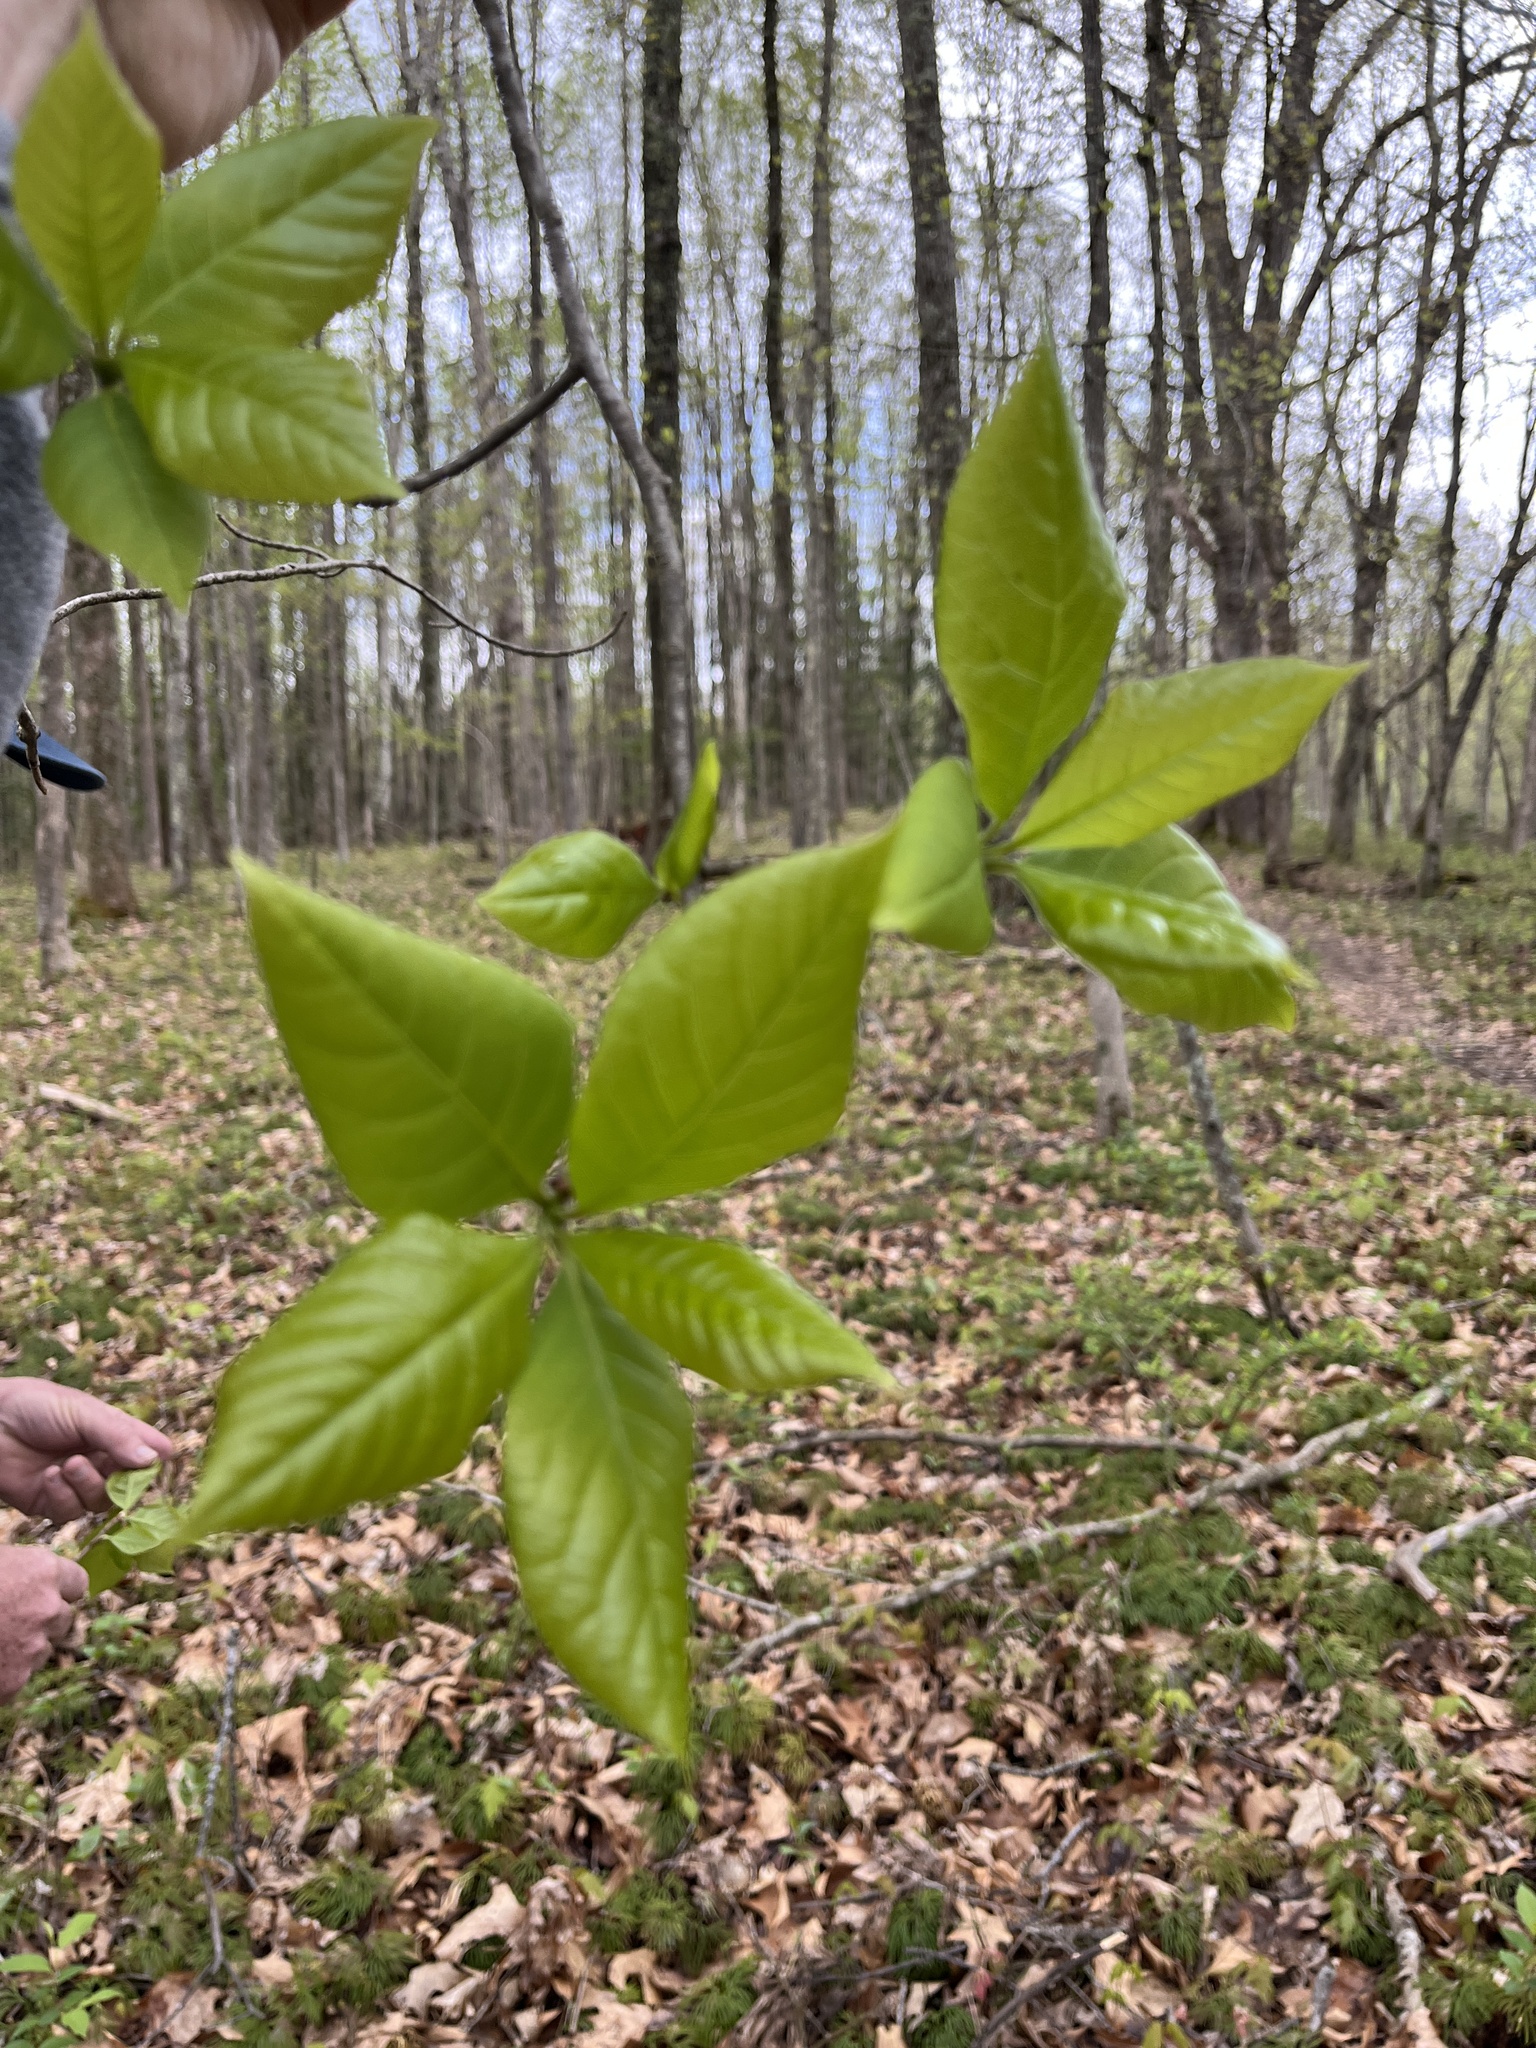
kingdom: Plantae
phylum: Tracheophyta
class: Magnoliopsida
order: Cornales
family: Nyssaceae
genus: Nyssa
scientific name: Nyssa sylvatica
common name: Black tupelo
